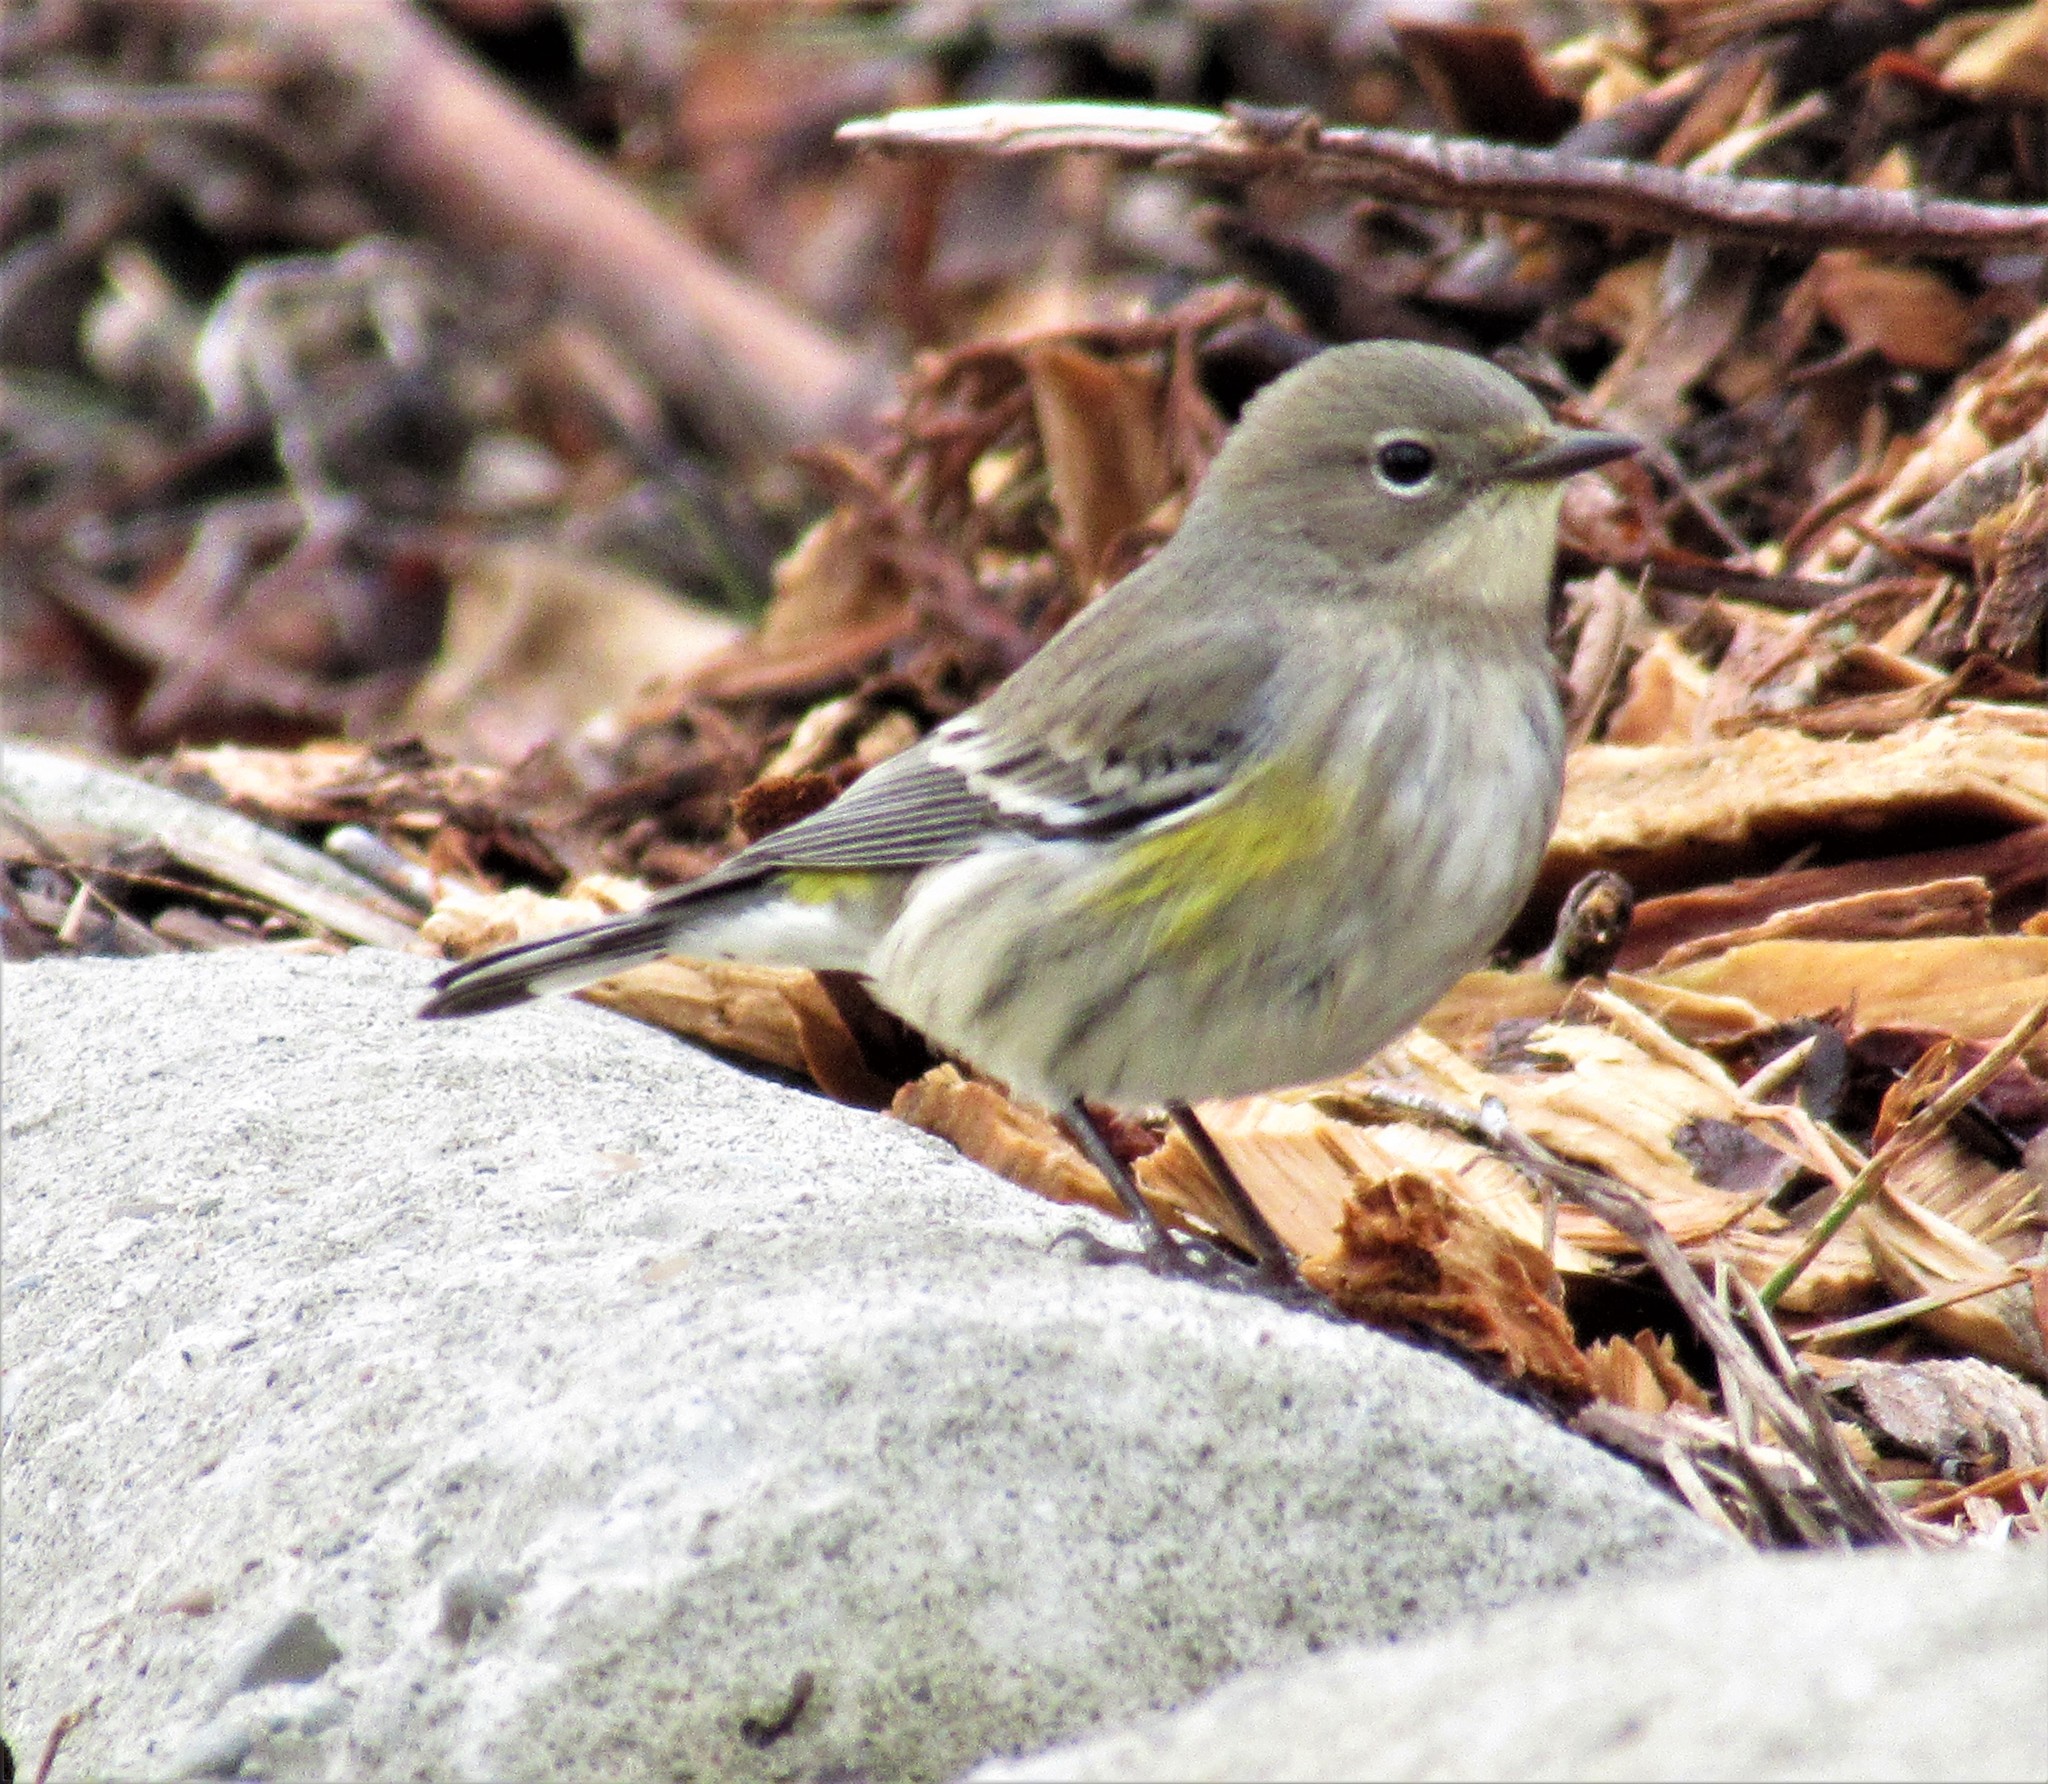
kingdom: Animalia
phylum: Chordata
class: Aves
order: Passeriformes
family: Parulidae
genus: Setophaga
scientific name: Setophaga coronata
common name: Myrtle warbler
